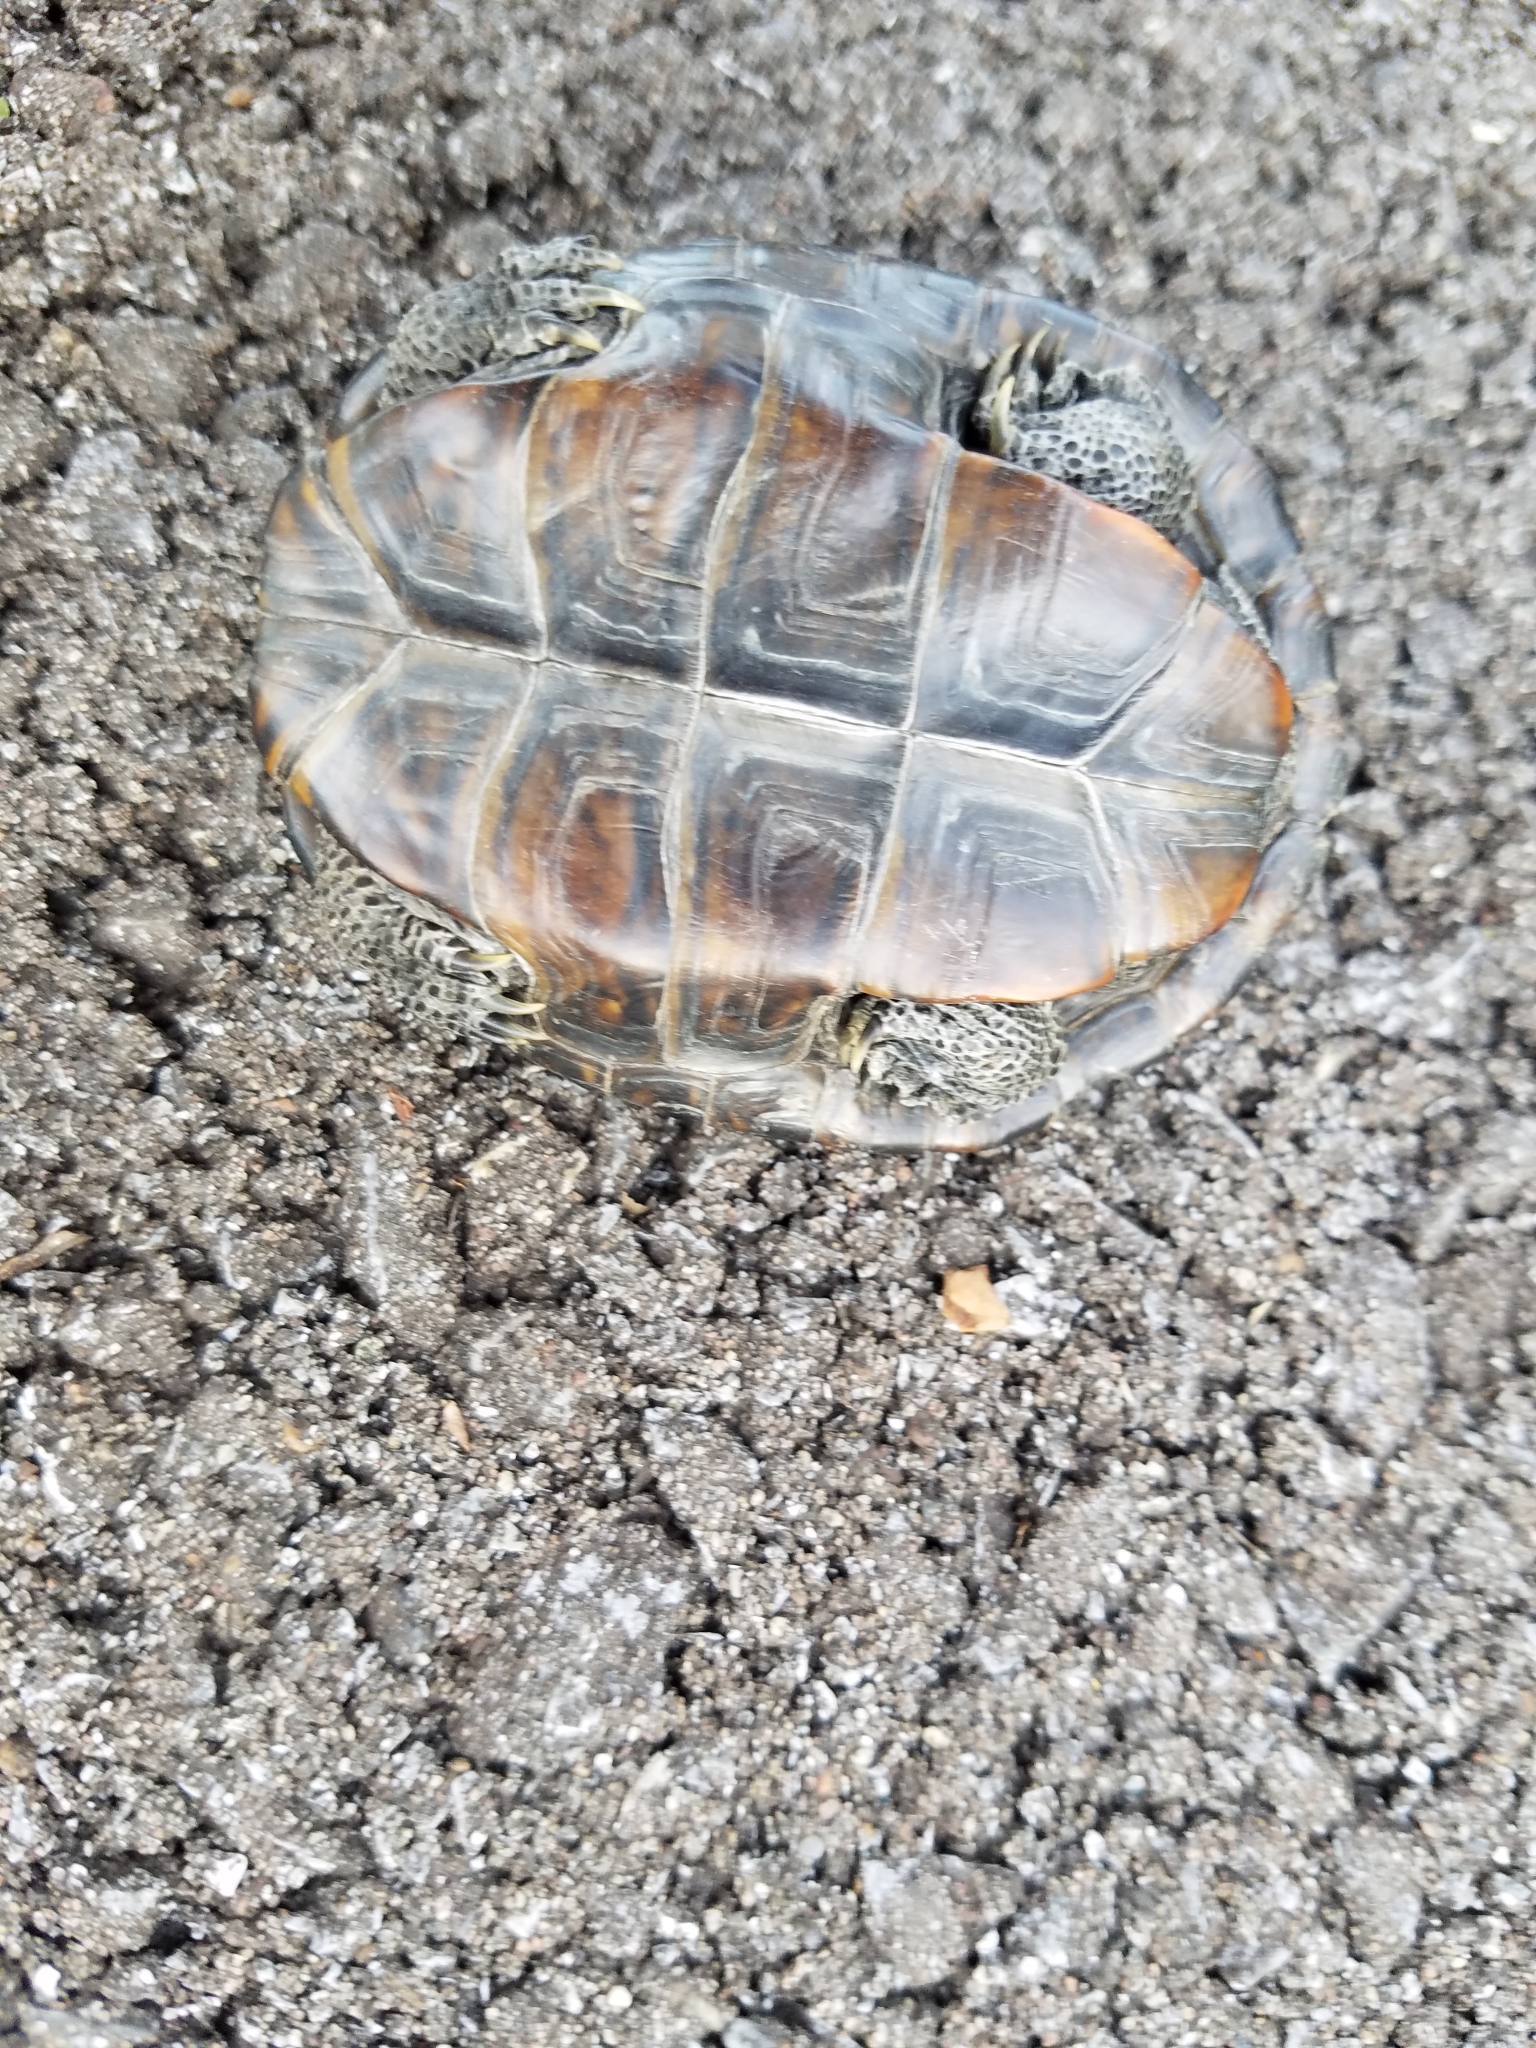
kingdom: Animalia
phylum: Chordata
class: Testudines
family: Emydidae
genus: Malaclemys
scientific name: Malaclemys terrapin
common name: Diamondback terrapin
